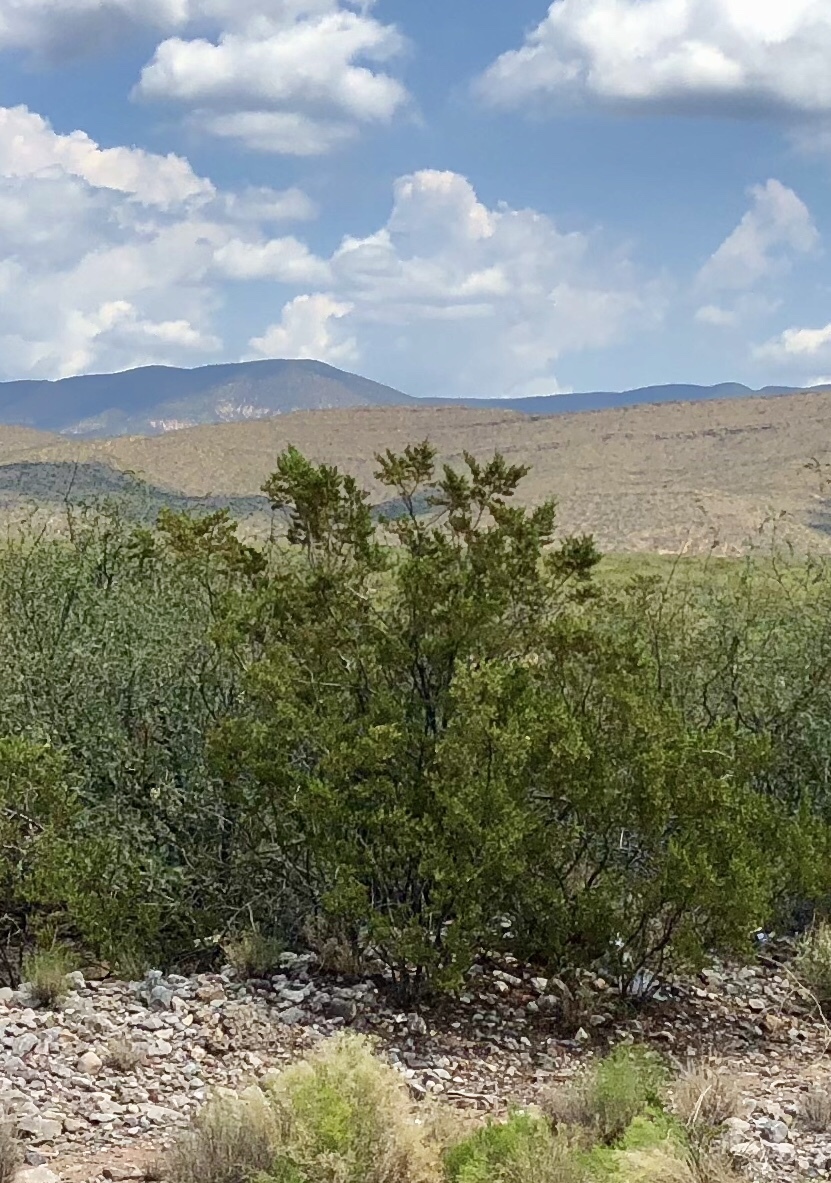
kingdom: Plantae
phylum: Tracheophyta
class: Magnoliopsida
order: Zygophyllales
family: Zygophyllaceae
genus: Larrea
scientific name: Larrea tridentata
